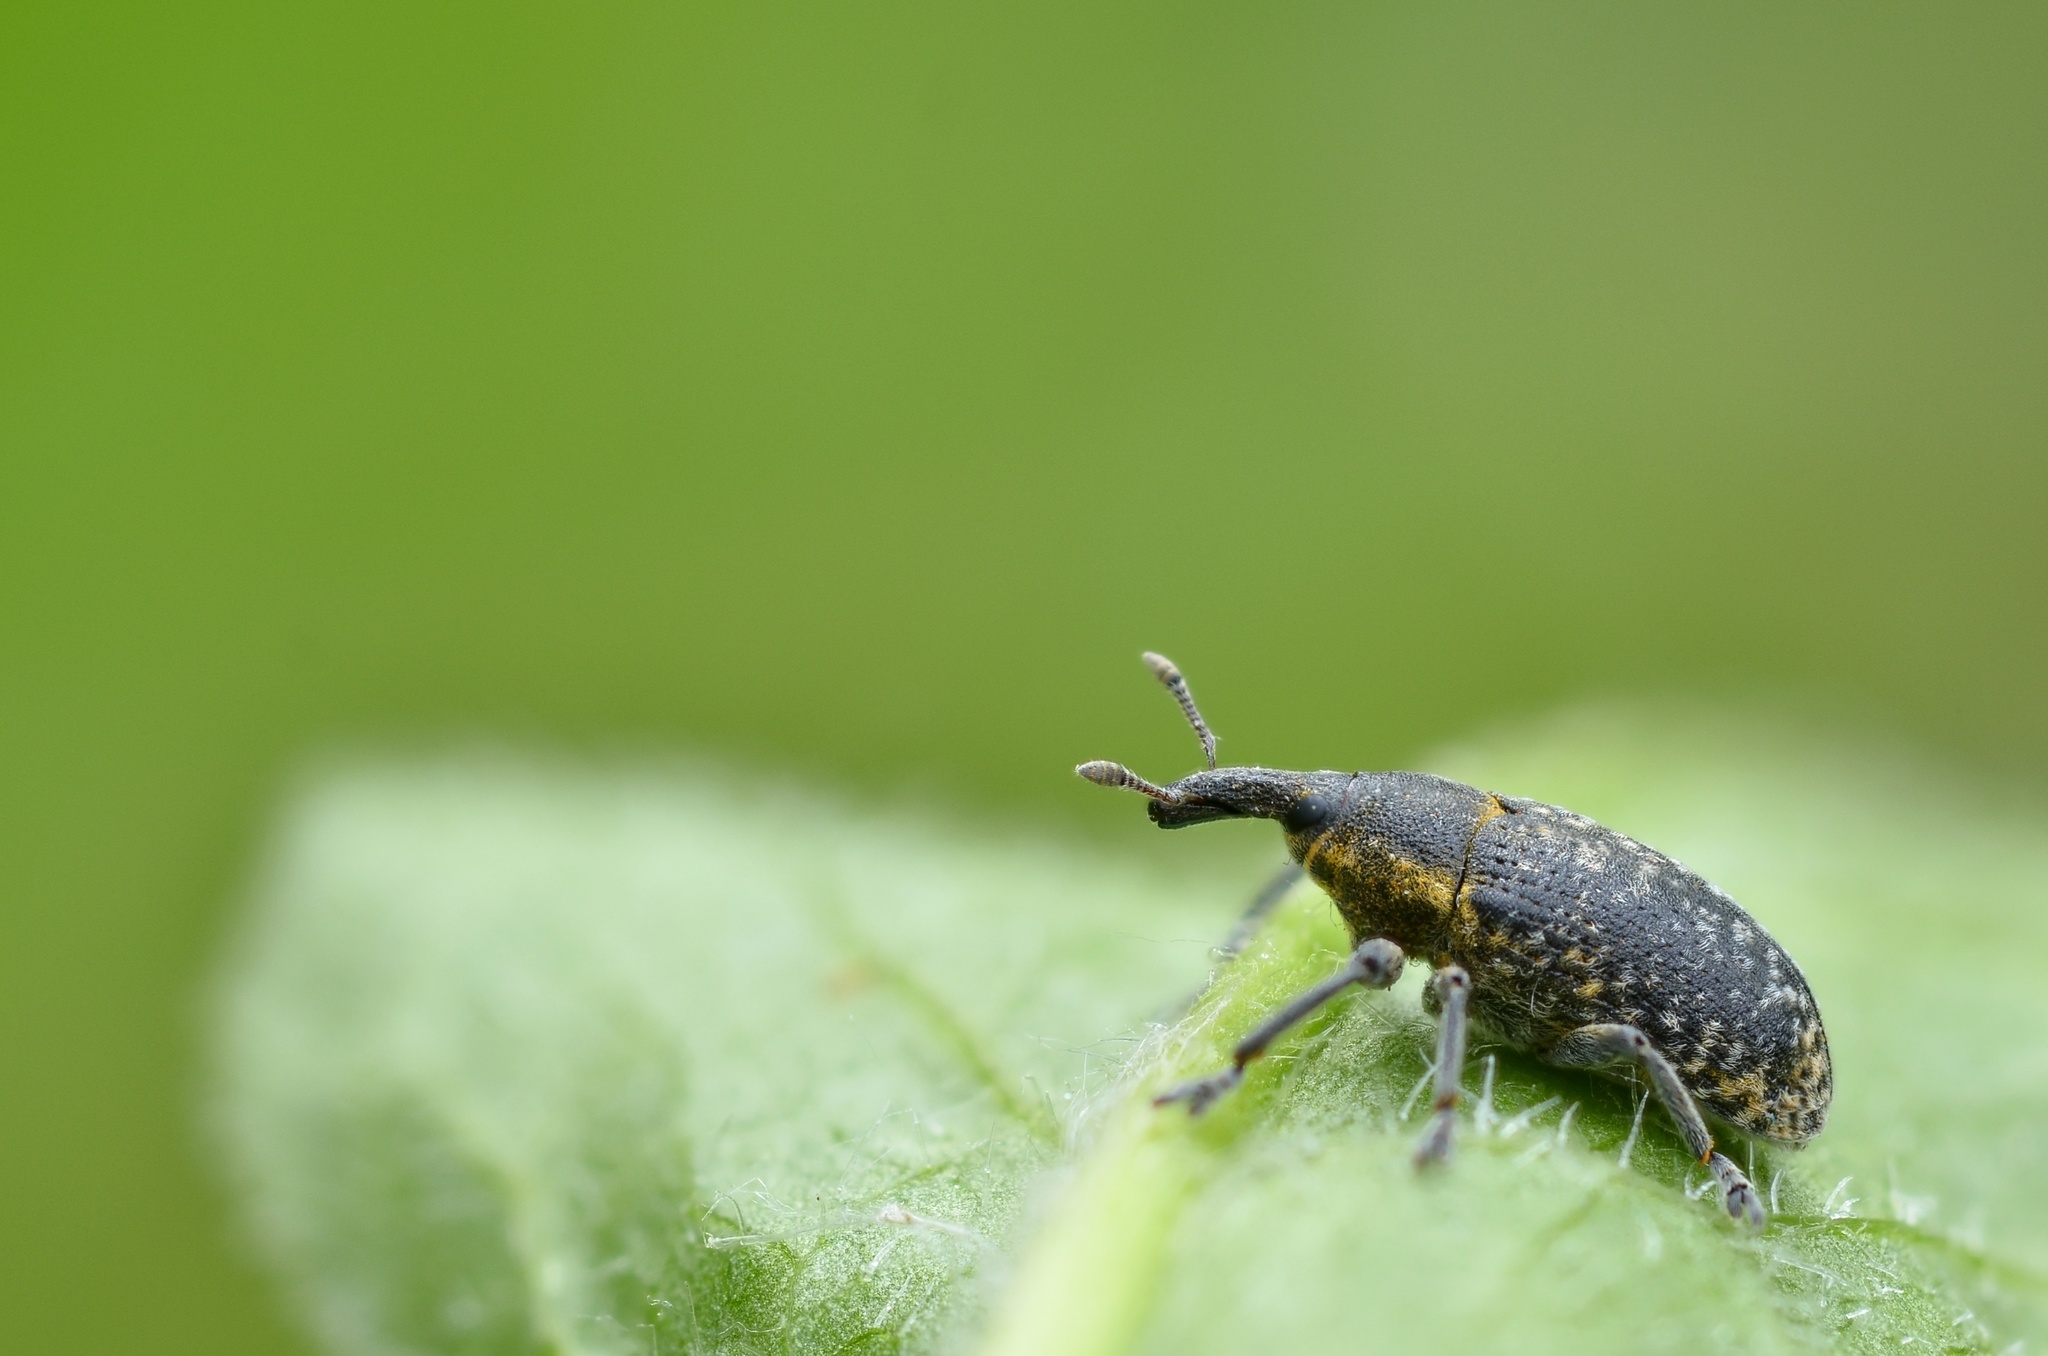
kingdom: Animalia
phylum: Arthropoda
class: Insecta
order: Coleoptera
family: Curculionidae
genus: Larinus
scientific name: Larinus carlinae
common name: Weevil
